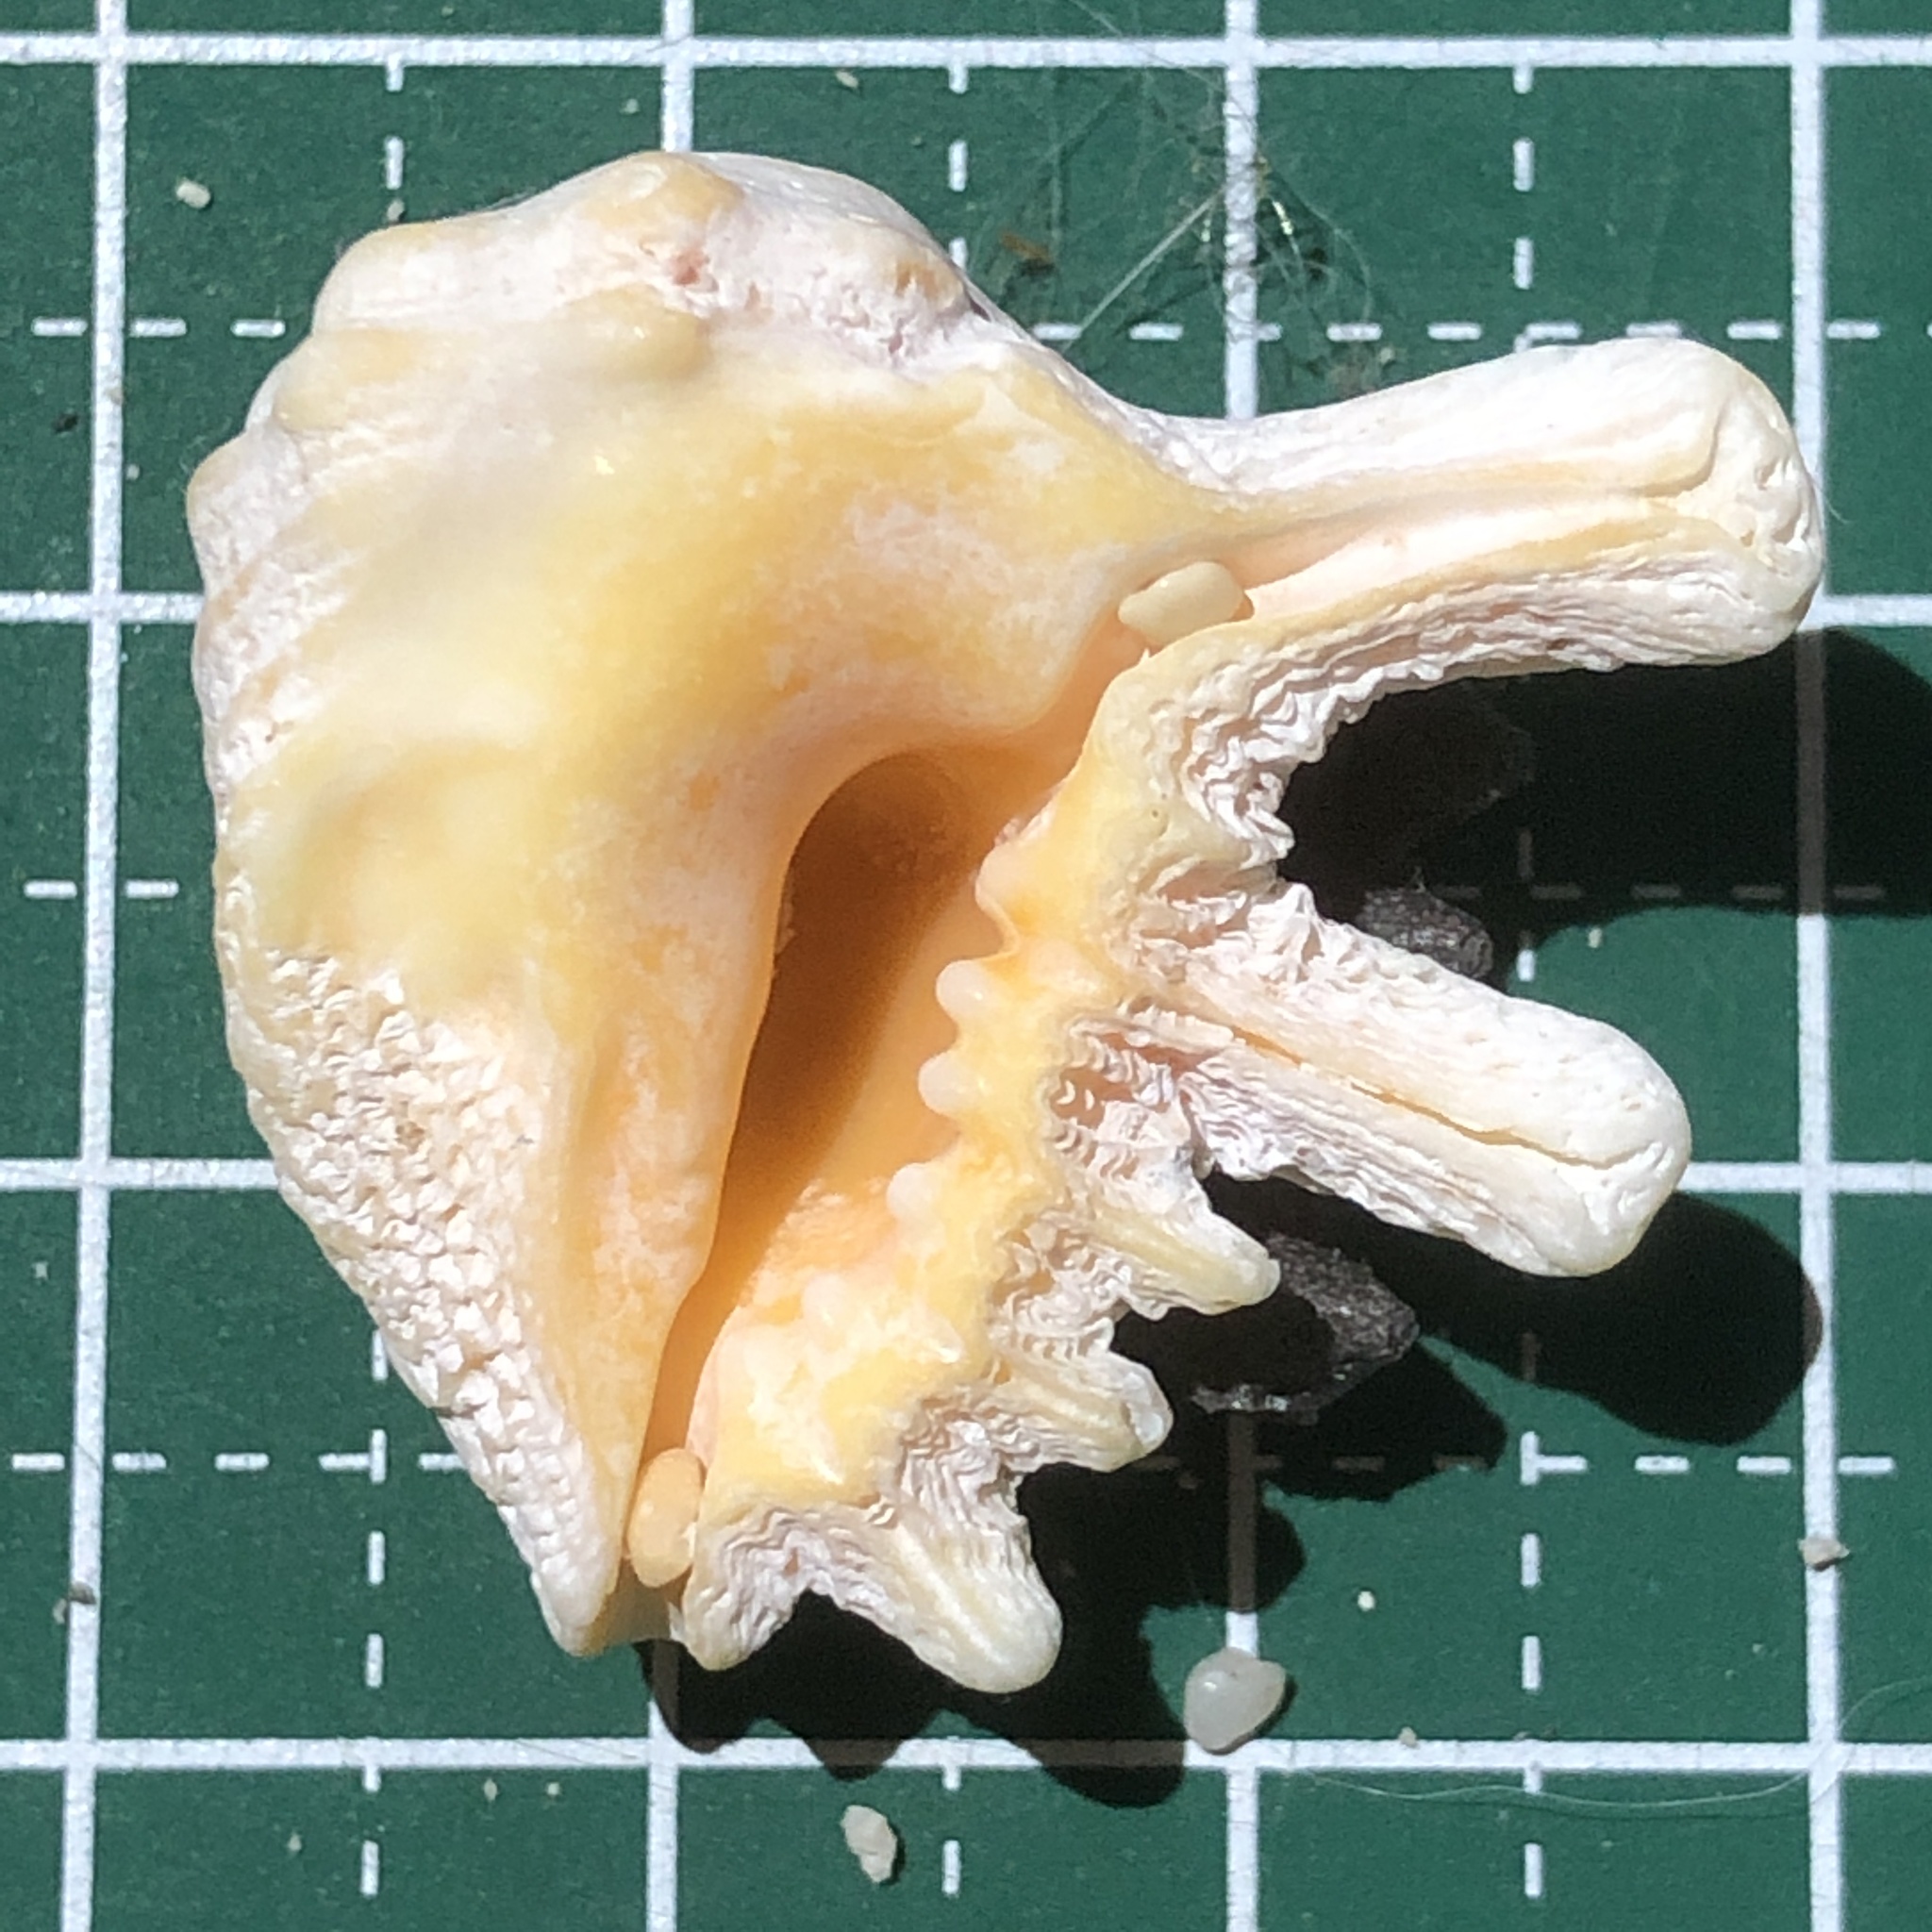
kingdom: Animalia
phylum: Mollusca
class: Gastropoda
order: Neogastropoda
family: Muricidae
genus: Drupina
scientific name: Drupina grossularia
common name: Digitate pacific drupe
